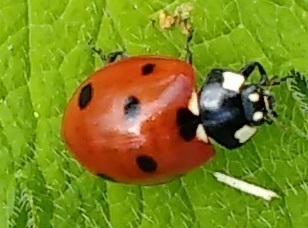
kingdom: Animalia
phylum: Arthropoda
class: Insecta
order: Coleoptera
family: Coccinellidae
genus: Coccinella
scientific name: Coccinella septempunctata
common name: Sevenspotted lady beetle
